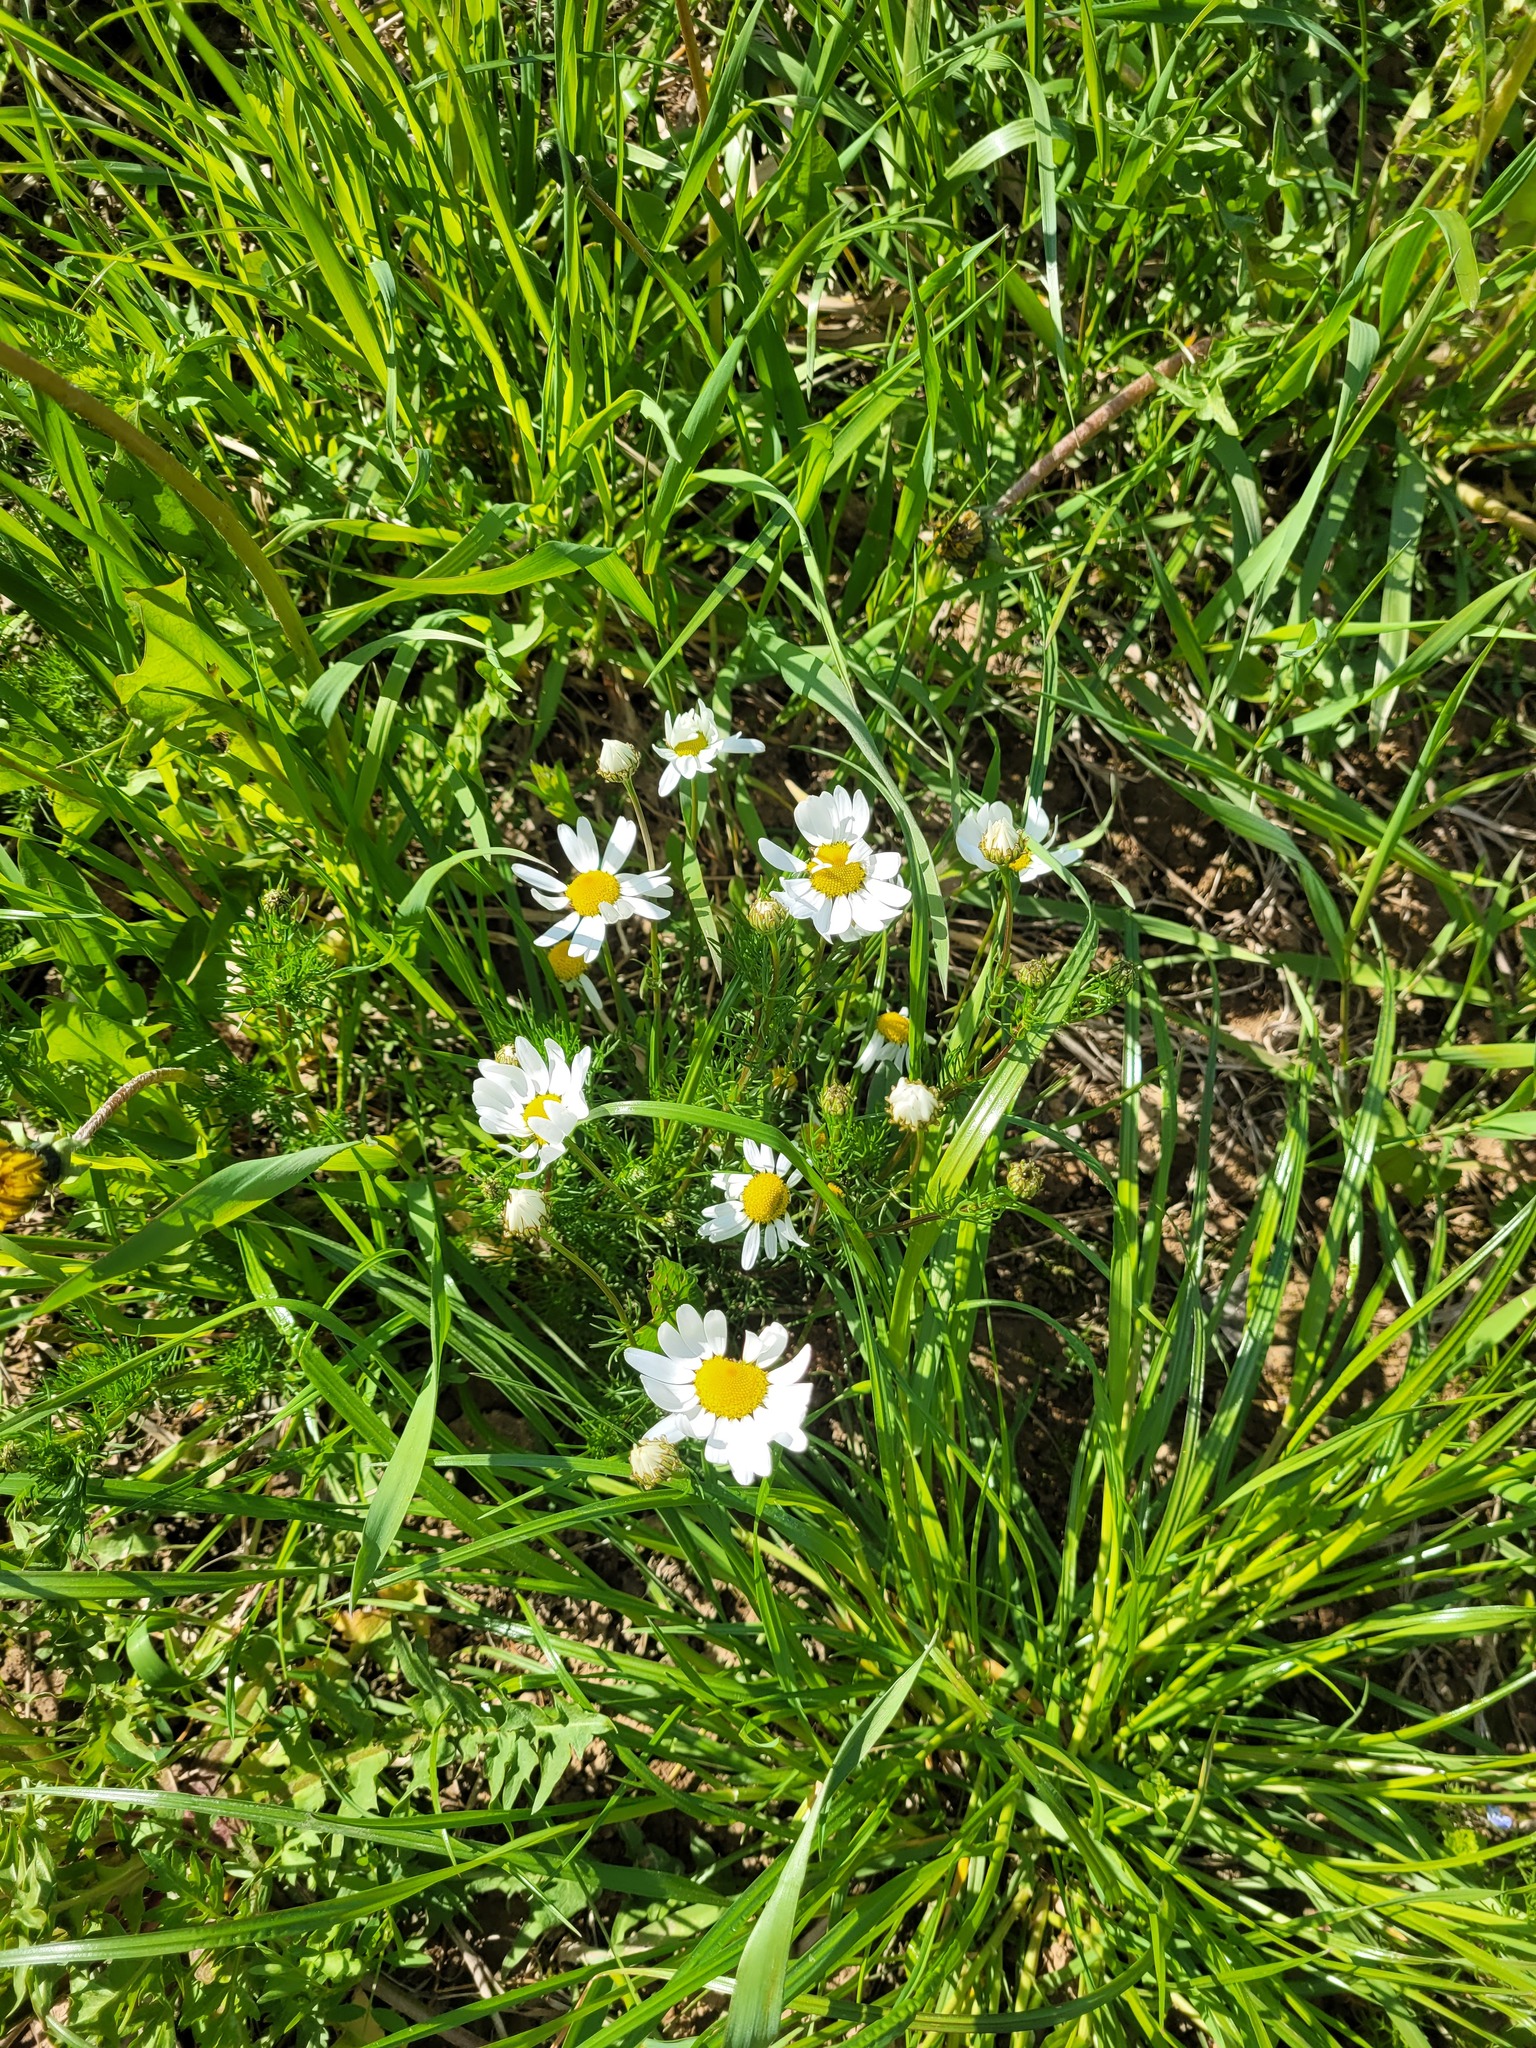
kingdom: Plantae
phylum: Tracheophyta
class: Magnoliopsida
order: Asterales
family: Asteraceae
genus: Tripleurospermum
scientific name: Tripleurospermum inodorum
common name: Scentless mayweed
